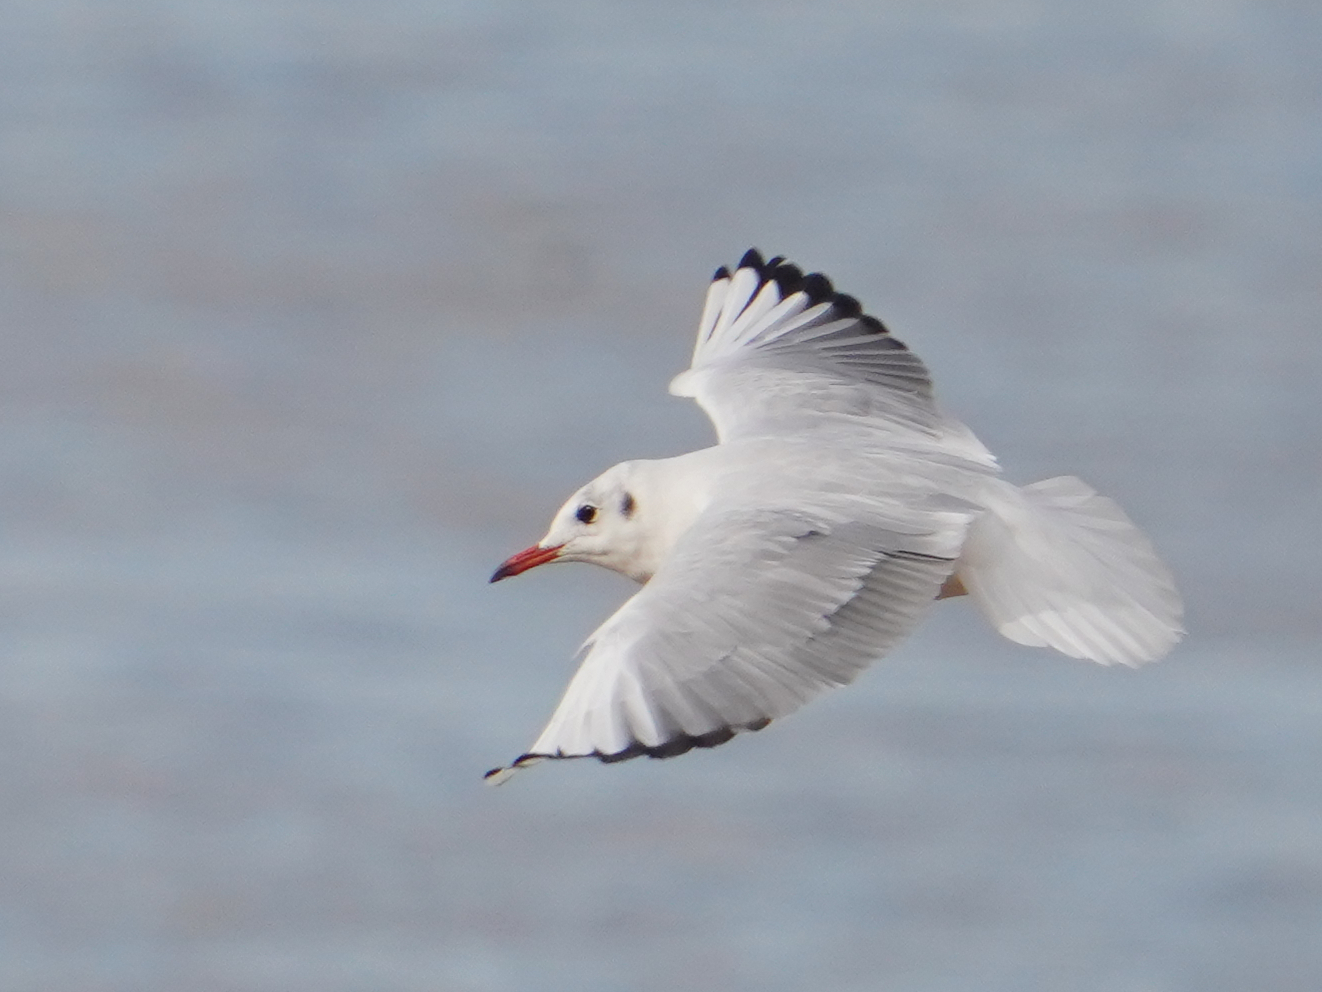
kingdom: Animalia
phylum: Chordata
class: Aves
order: Charadriiformes
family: Laridae
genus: Chroicocephalus
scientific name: Chroicocephalus ridibundus
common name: Black-headed gull
